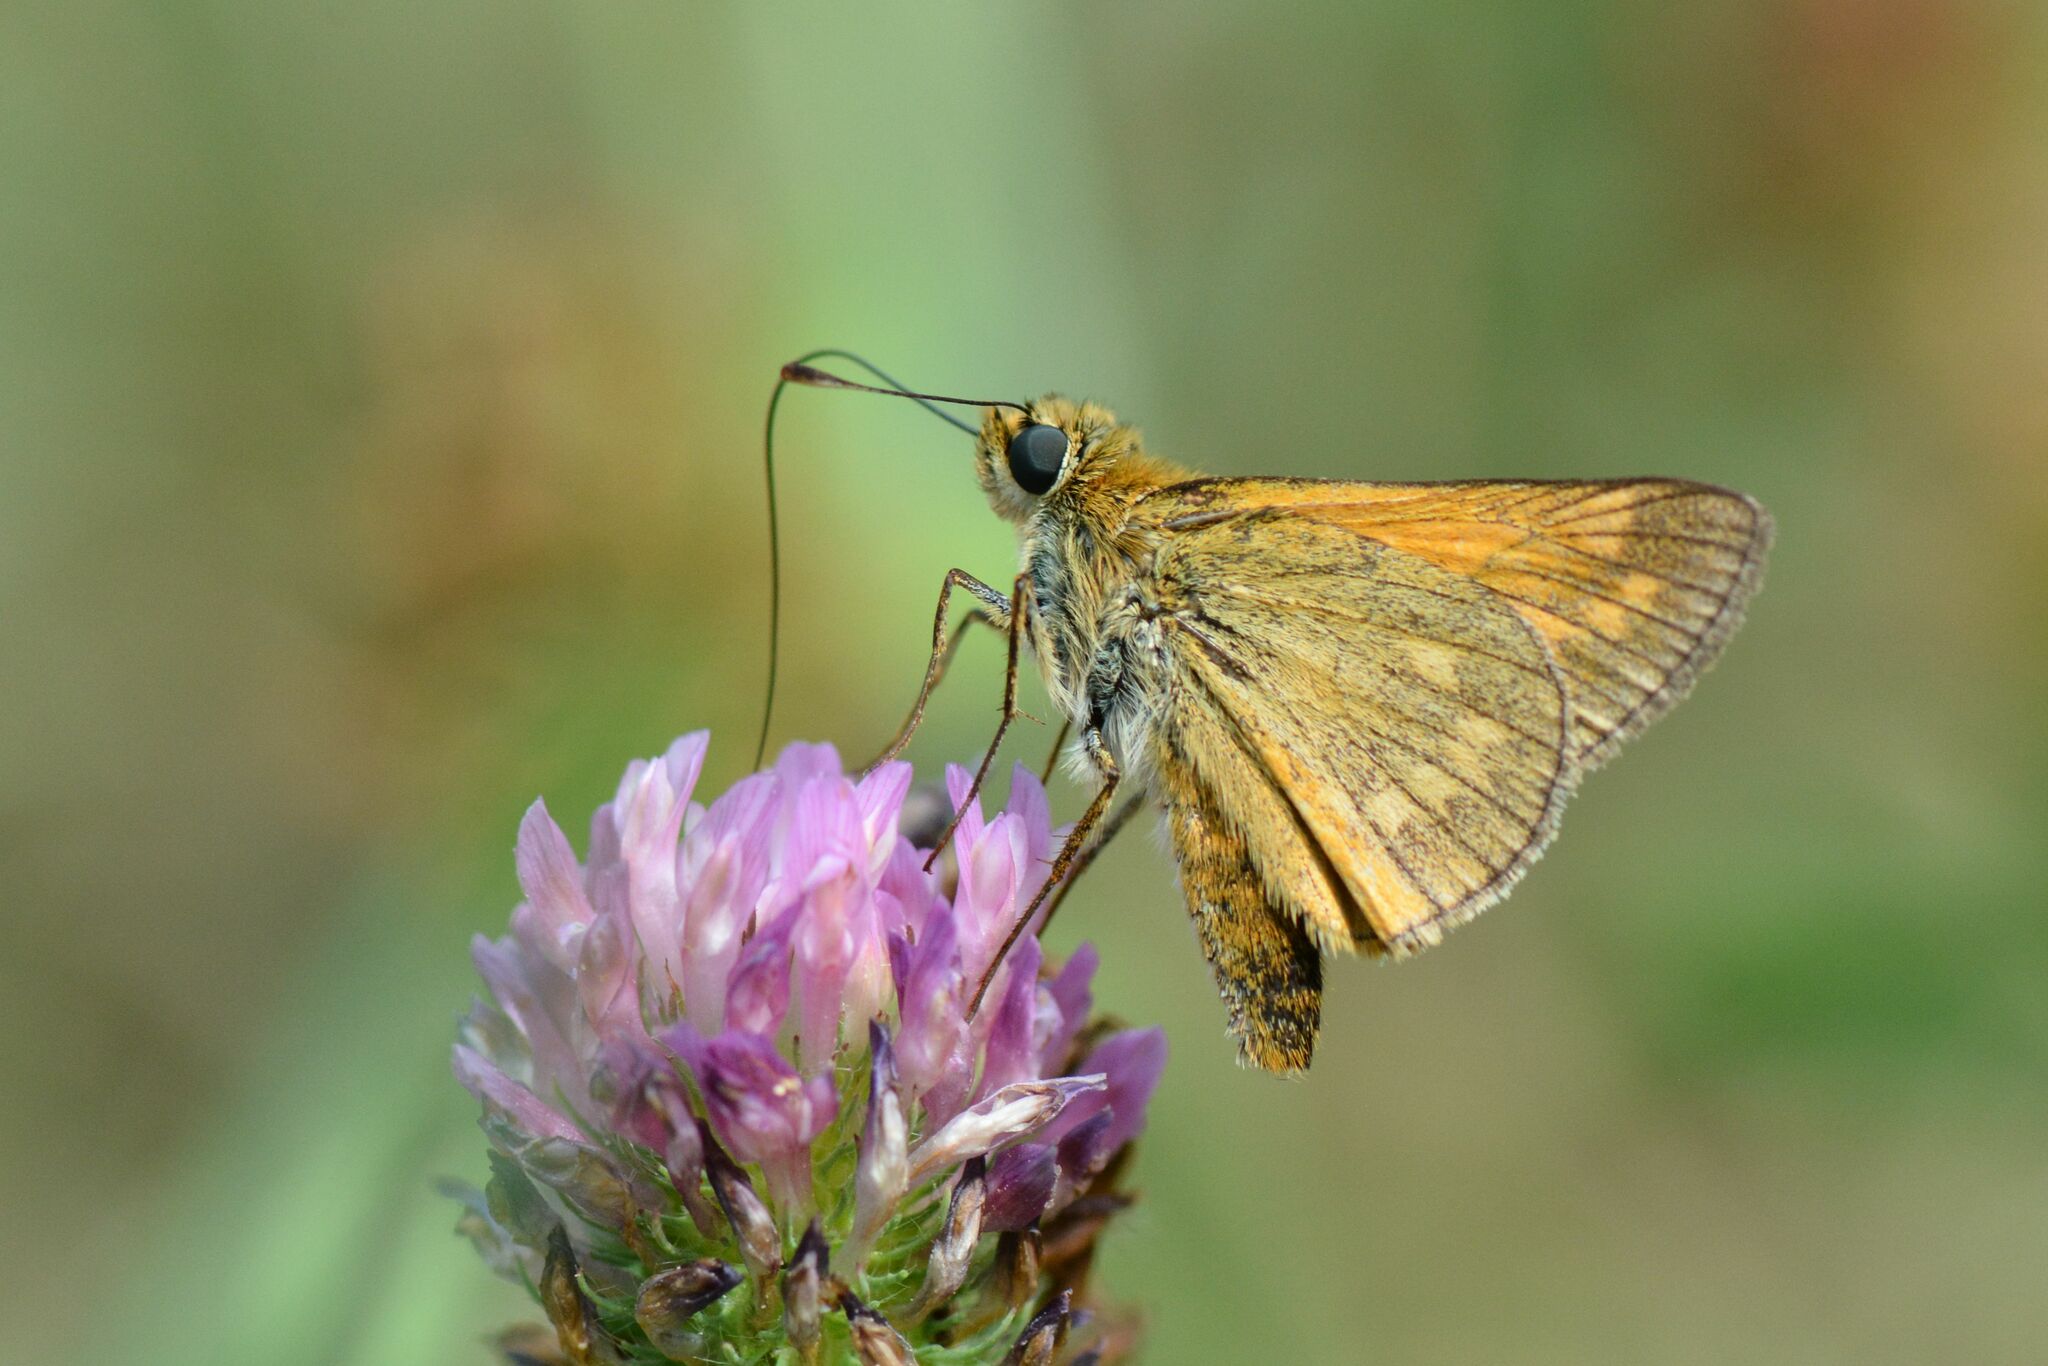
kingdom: Animalia
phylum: Arthropoda
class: Insecta
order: Lepidoptera
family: Hesperiidae
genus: Ochlodes
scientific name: Ochlodes venata
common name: Large skipper
